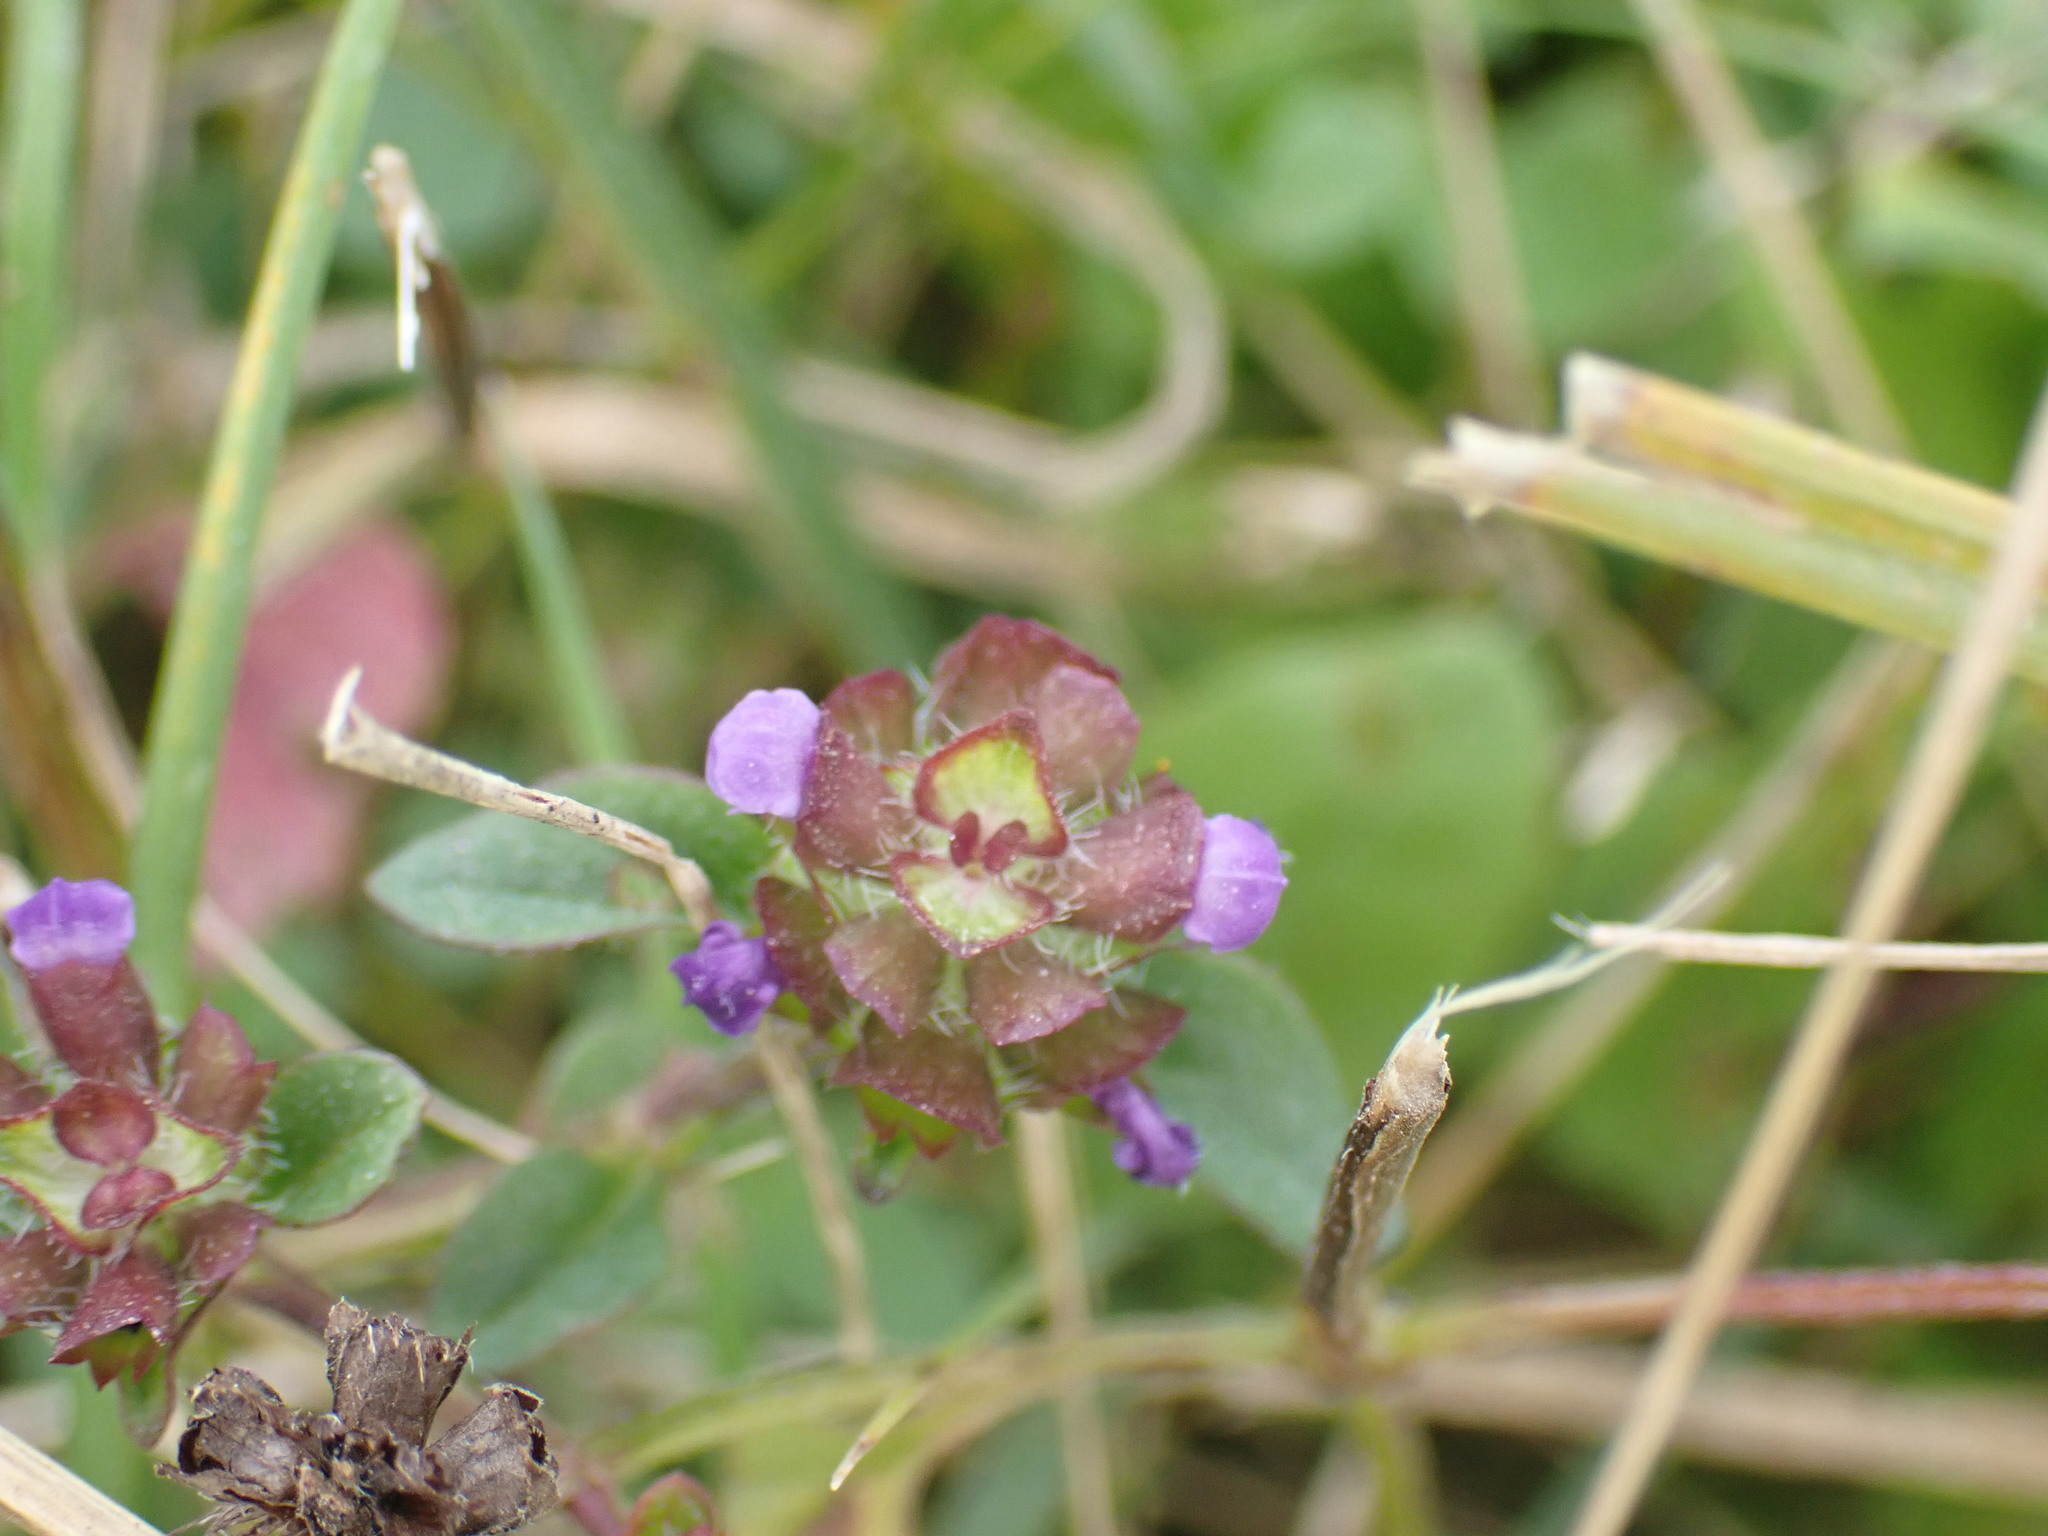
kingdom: Plantae
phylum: Tracheophyta
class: Magnoliopsida
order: Lamiales
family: Lamiaceae
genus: Prunella
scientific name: Prunella vulgaris
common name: Heal-all
